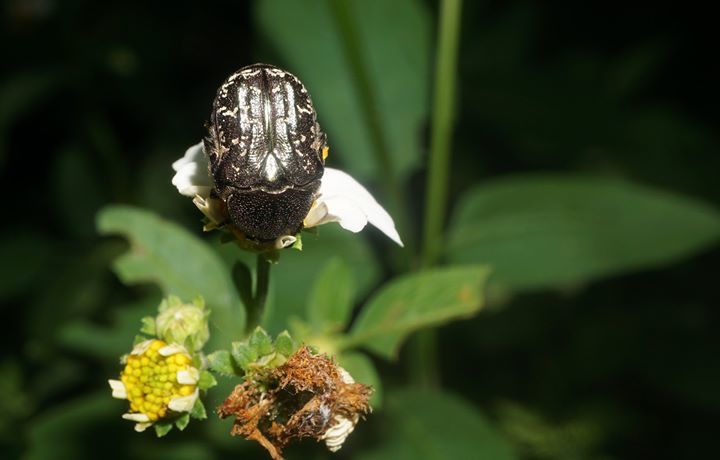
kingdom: Animalia
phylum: Arthropoda
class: Insecta
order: Coleoptera
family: Scarabaeidae
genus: Euphoria
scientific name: Euphoria sepulcralis
